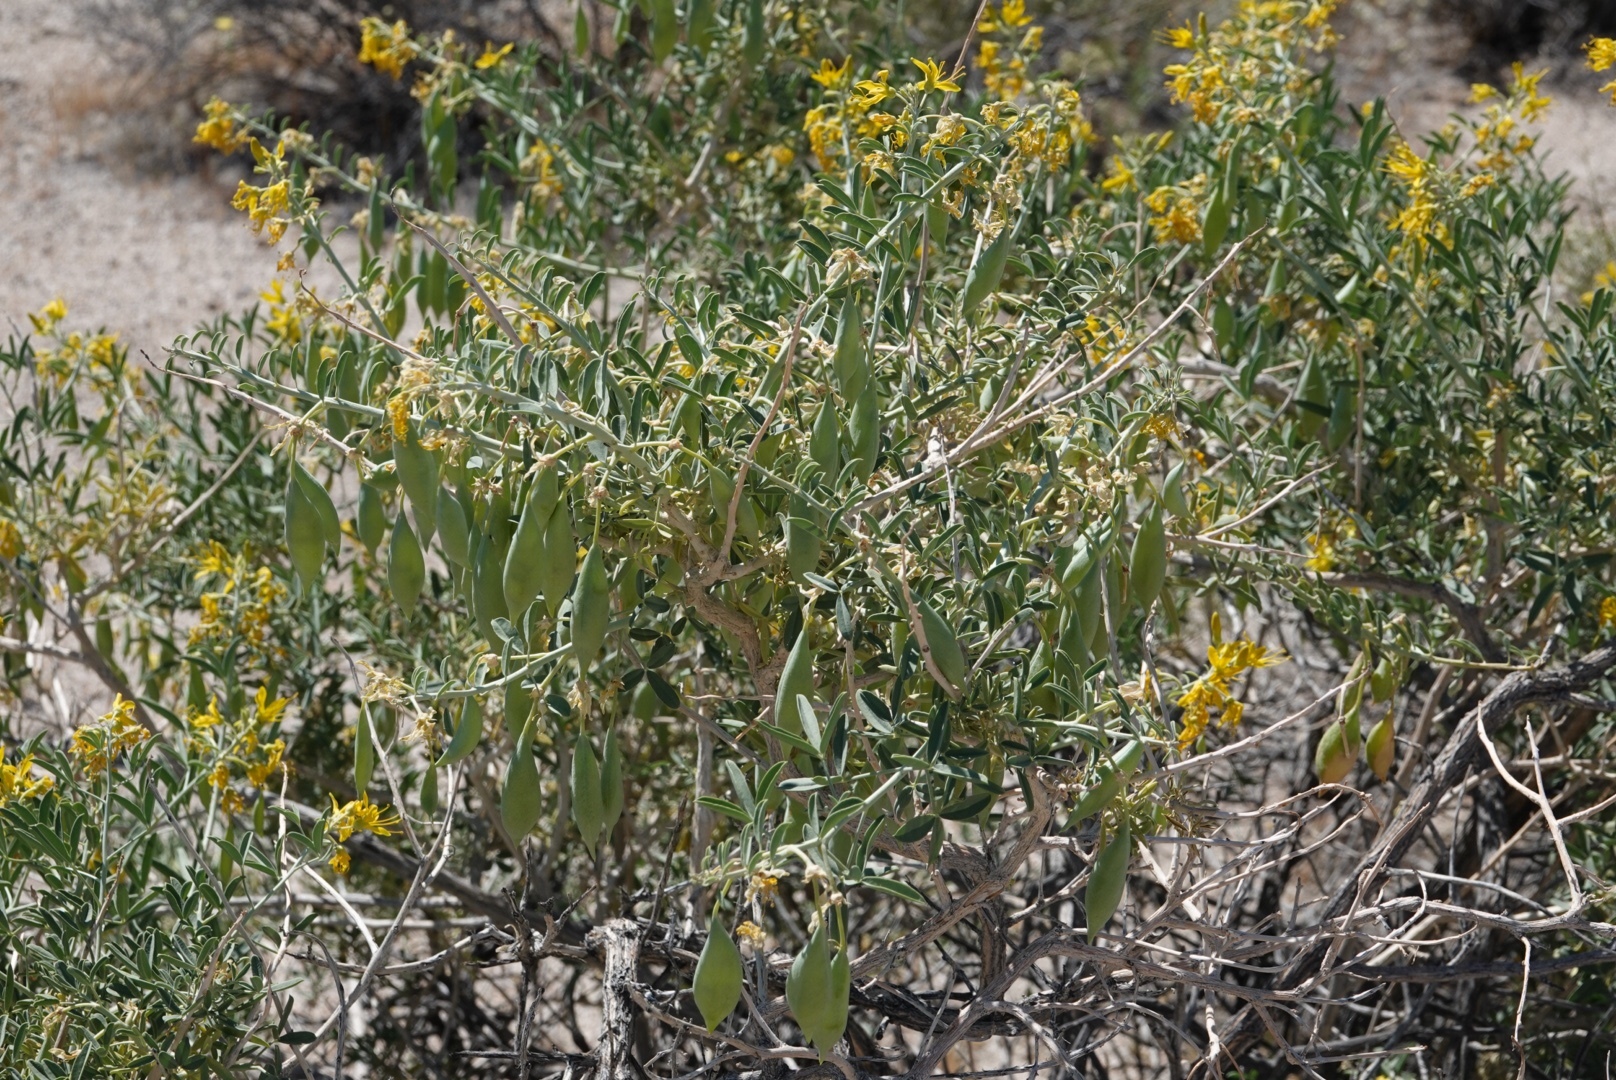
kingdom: Plantae
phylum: Tracheophyta
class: Magnoliopsida
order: Brassicales
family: Cleomaceae
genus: Cleomella
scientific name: Cleomella arborea
